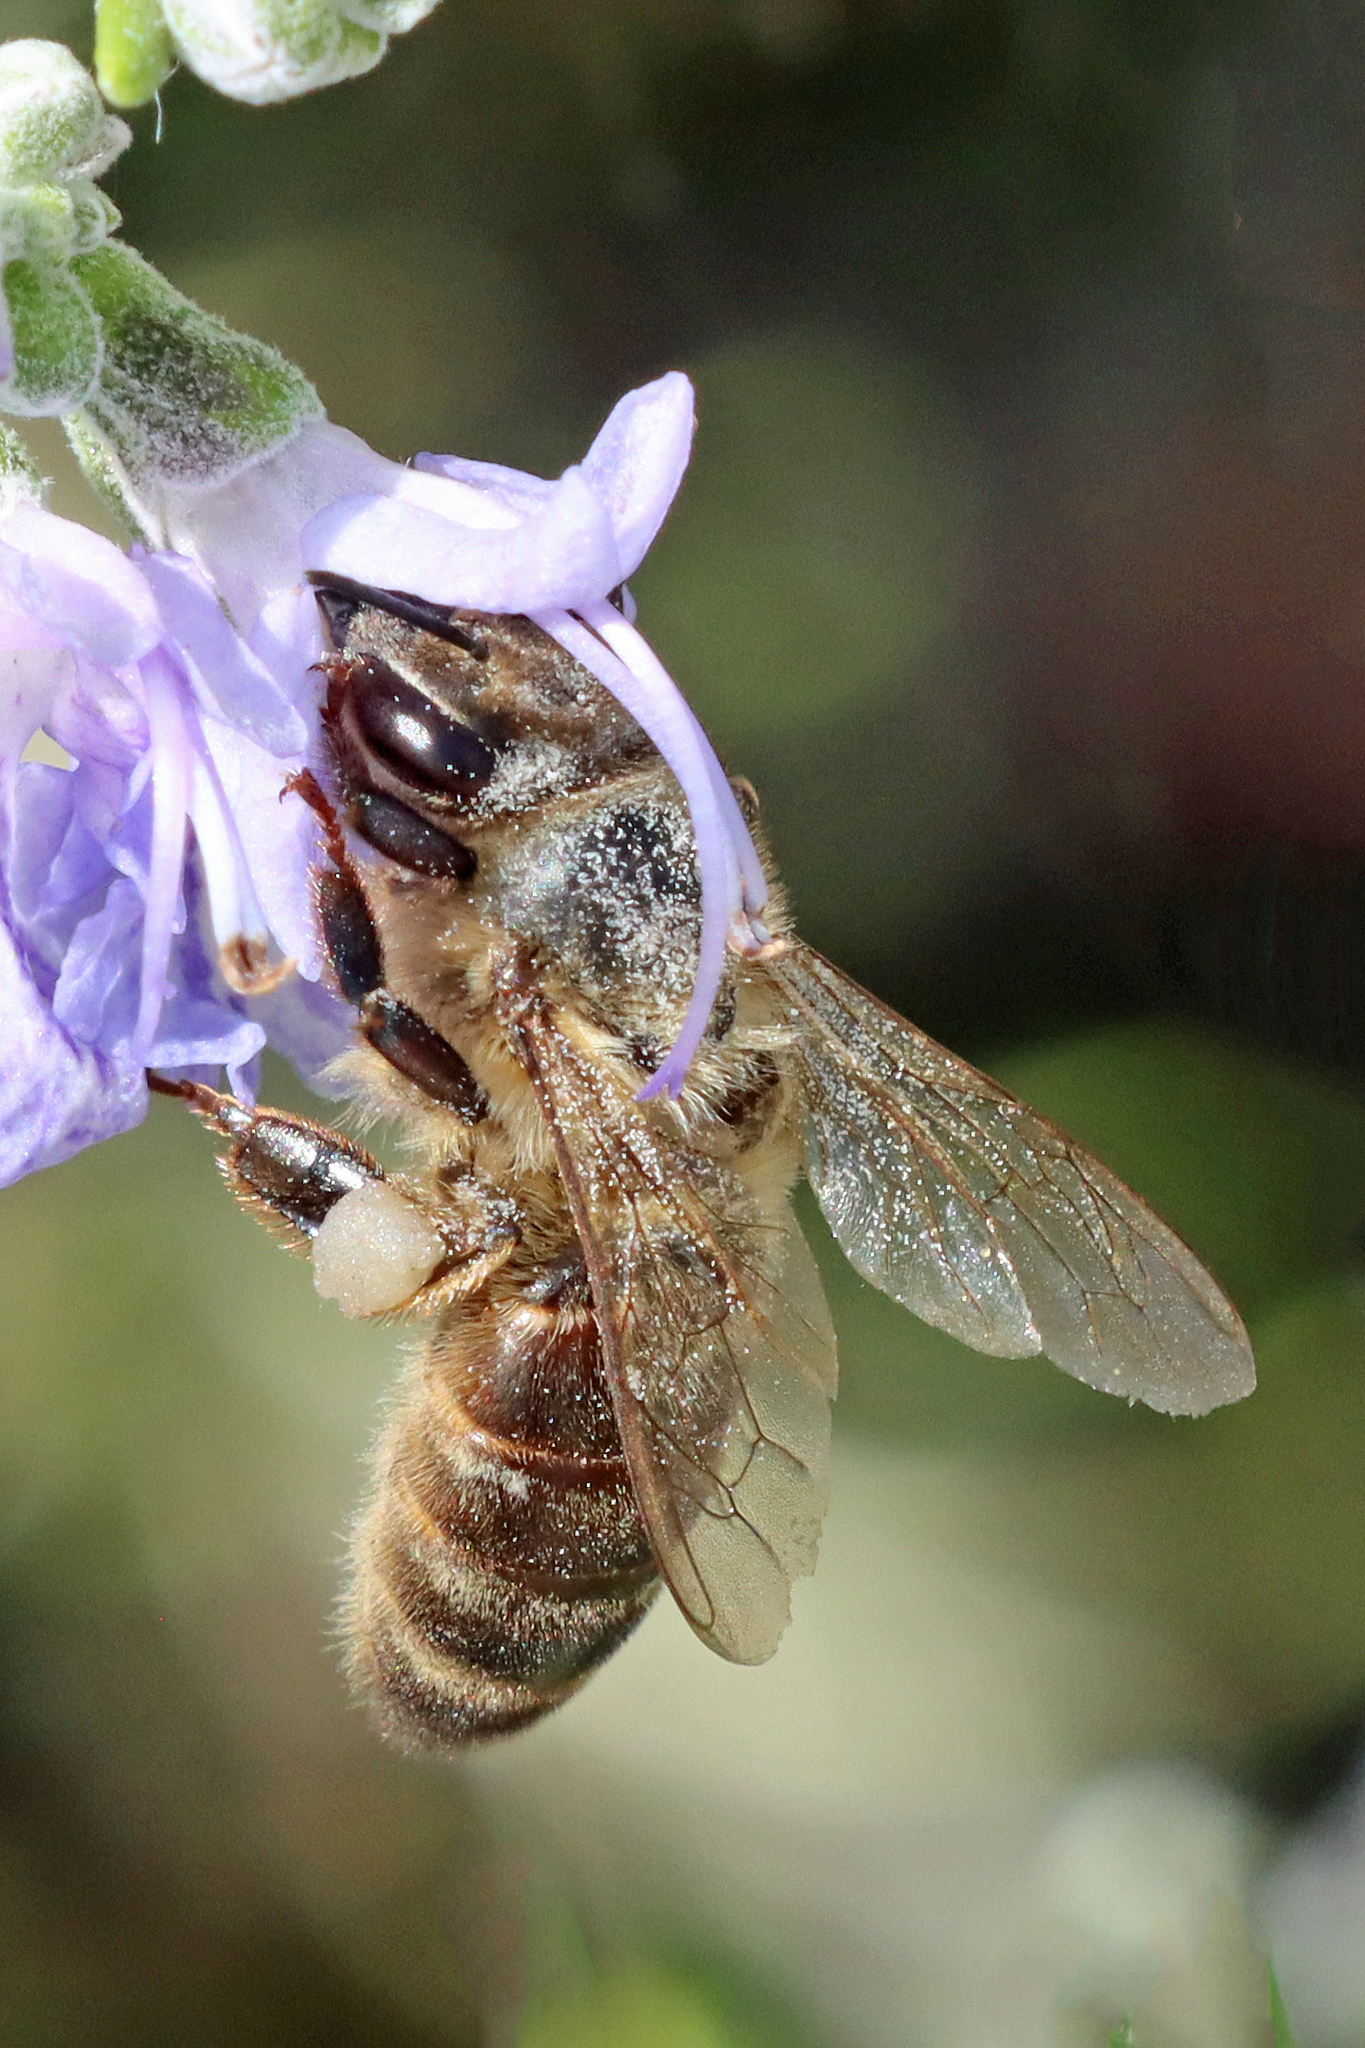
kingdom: Animalia
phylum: Arthropoda
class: Insecta
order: Hymenoptera
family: Apidae
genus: Apis
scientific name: Apis mellifera
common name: Honey bee
